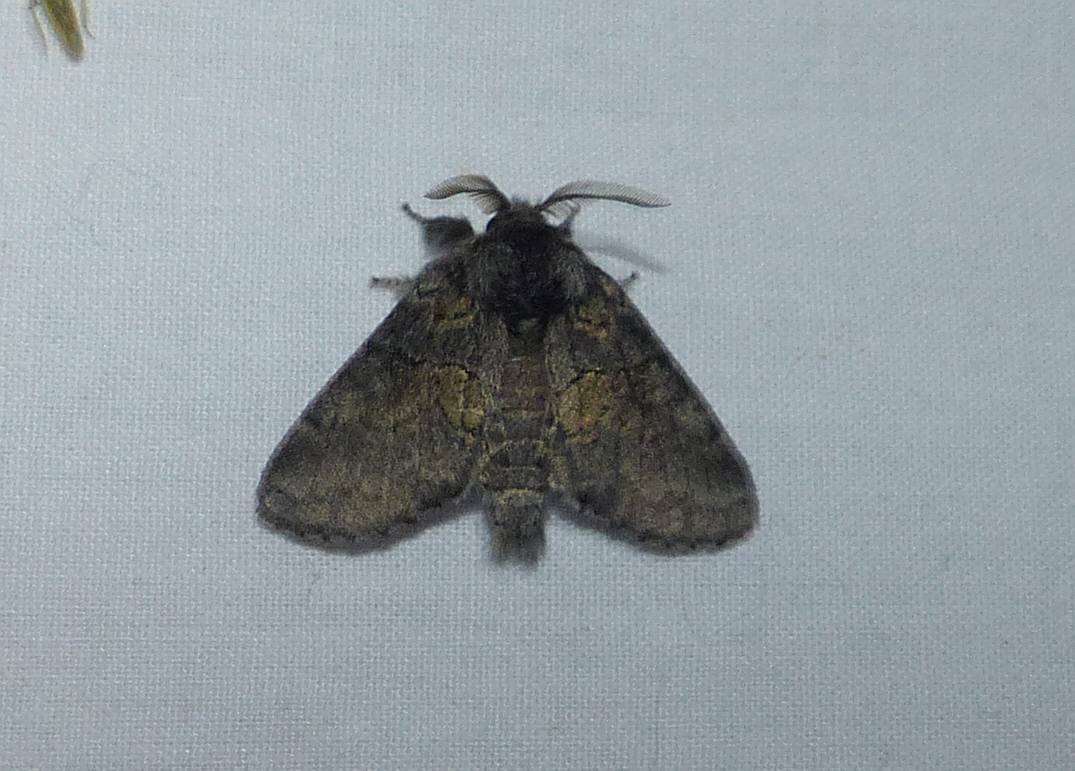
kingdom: Animalia
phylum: Arthropoda
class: Insecta
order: Lepidoptera
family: Notodontidae
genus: Gluphisia
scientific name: Gluphisia septentrionis
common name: Common gluphisia
